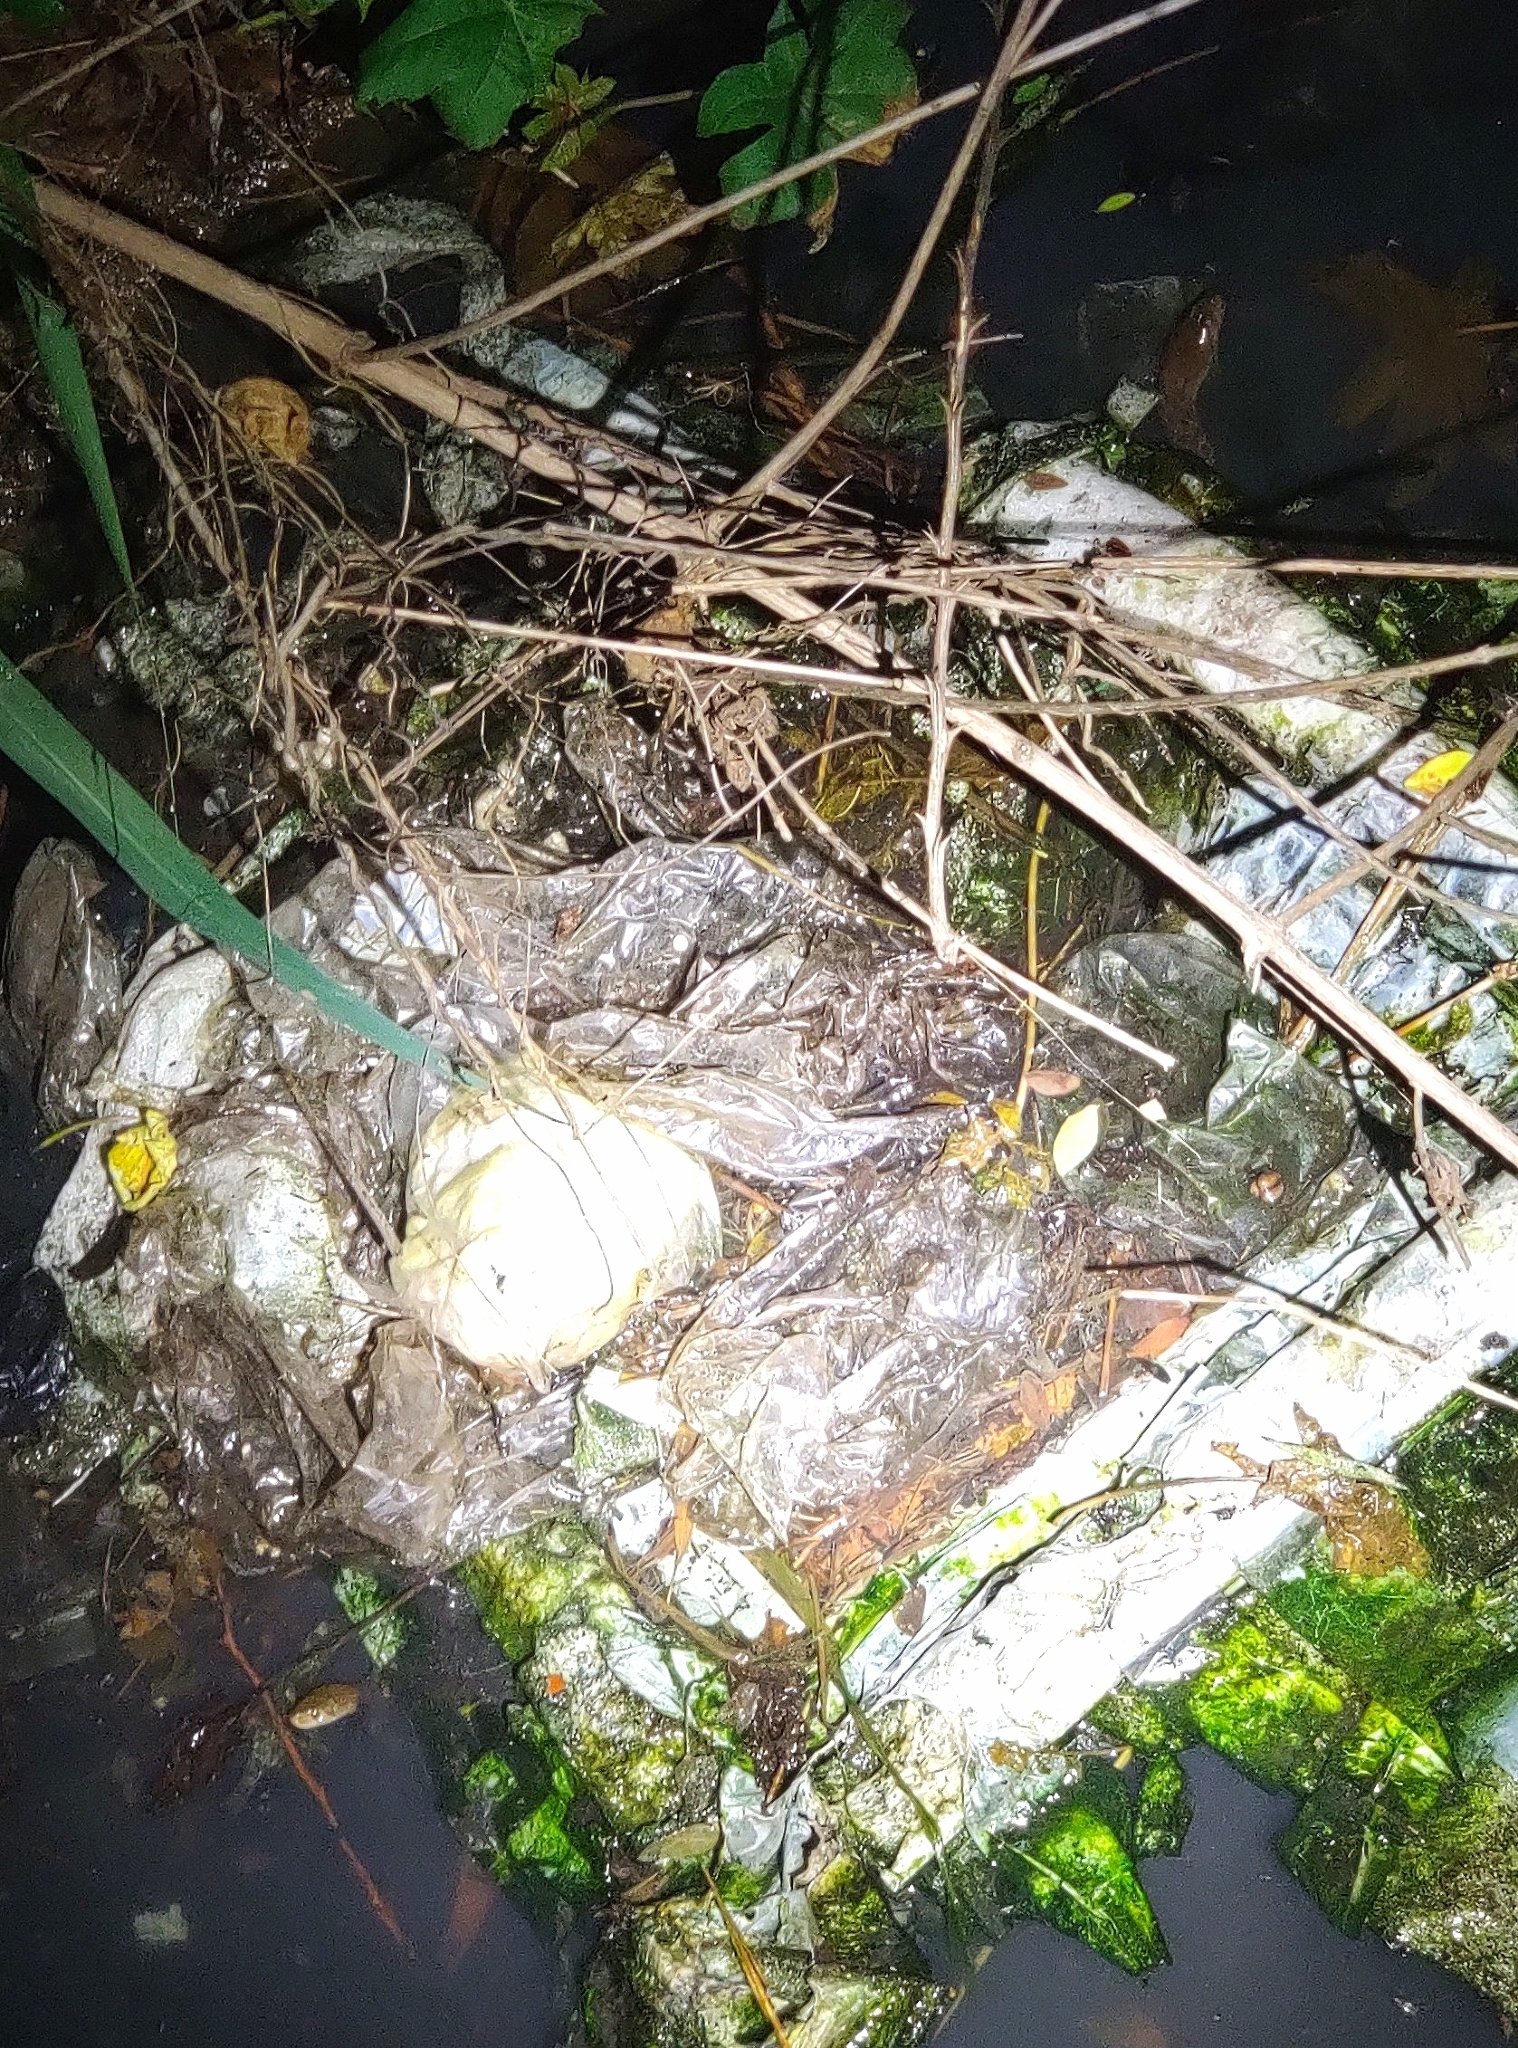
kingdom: Animalia
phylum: Chordata
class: Squamata
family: Colubridae
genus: Fowlea
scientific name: Fowlea piscator
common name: Asiatic water snake
